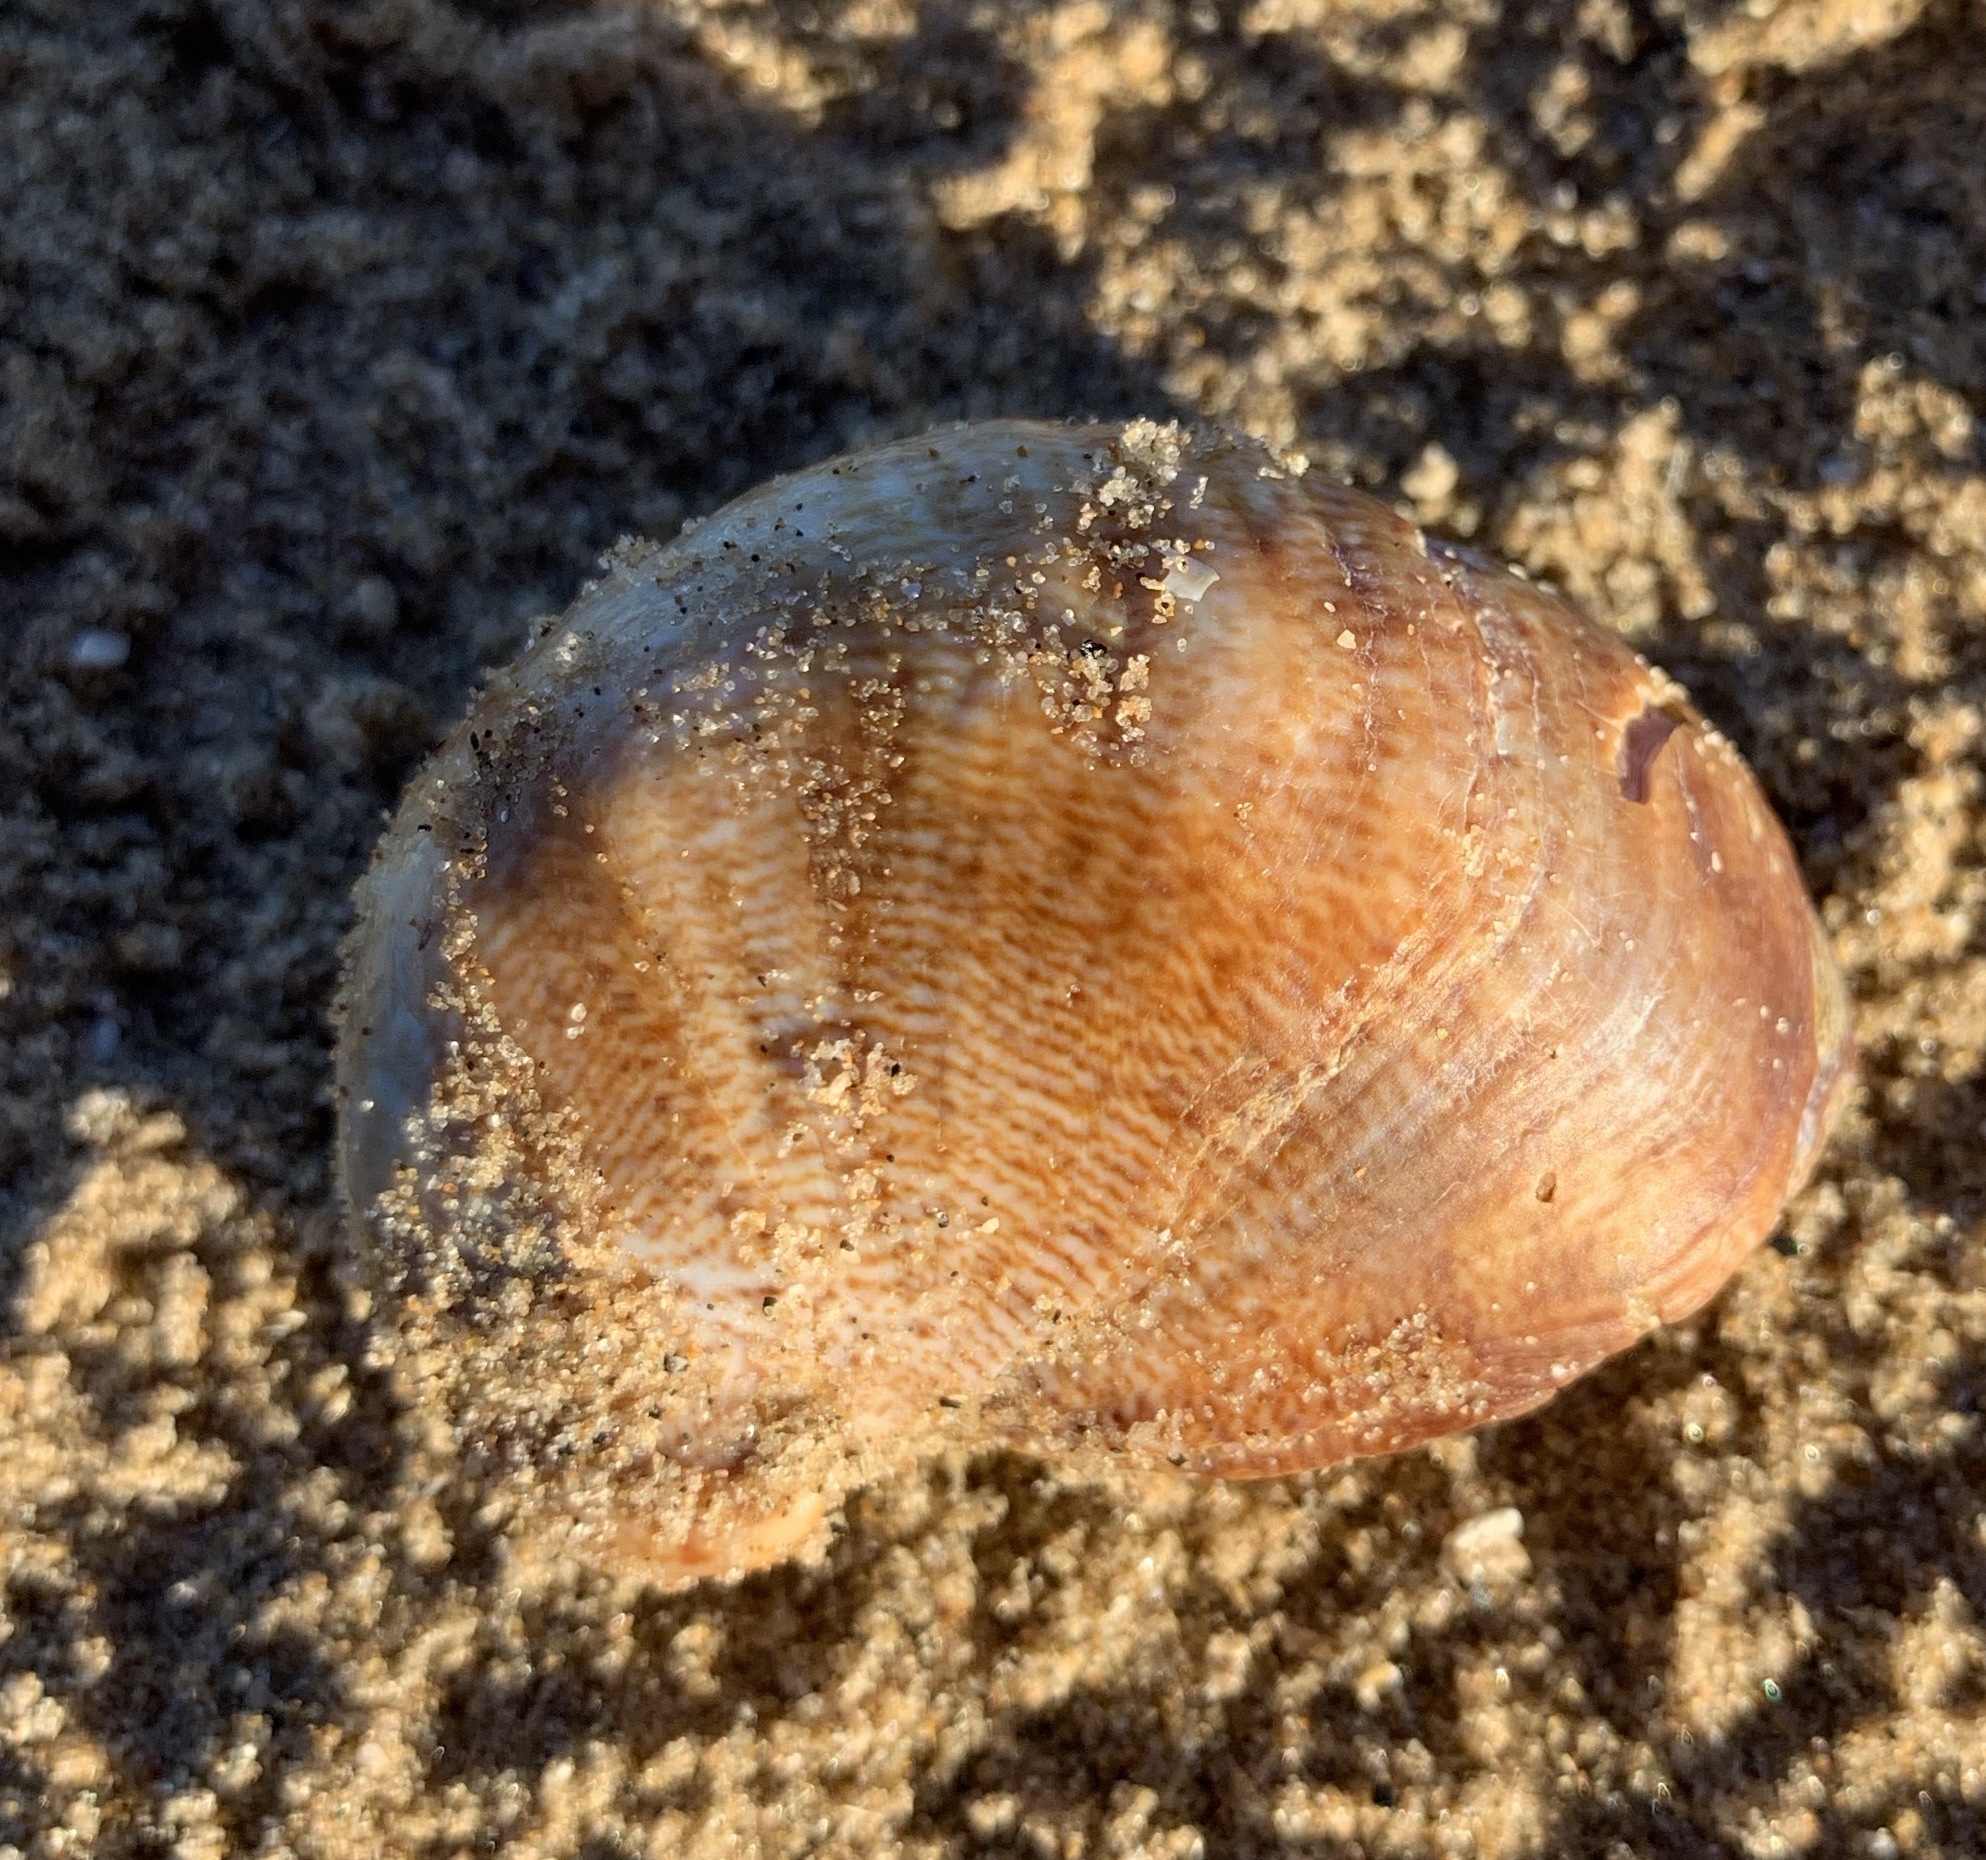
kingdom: Animalia
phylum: Mollusca
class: Gastropoda
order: Littorinimorpha
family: Calyptraeidae
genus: Crepidula
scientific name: Crepidula fornicata
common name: Slipper limpet
